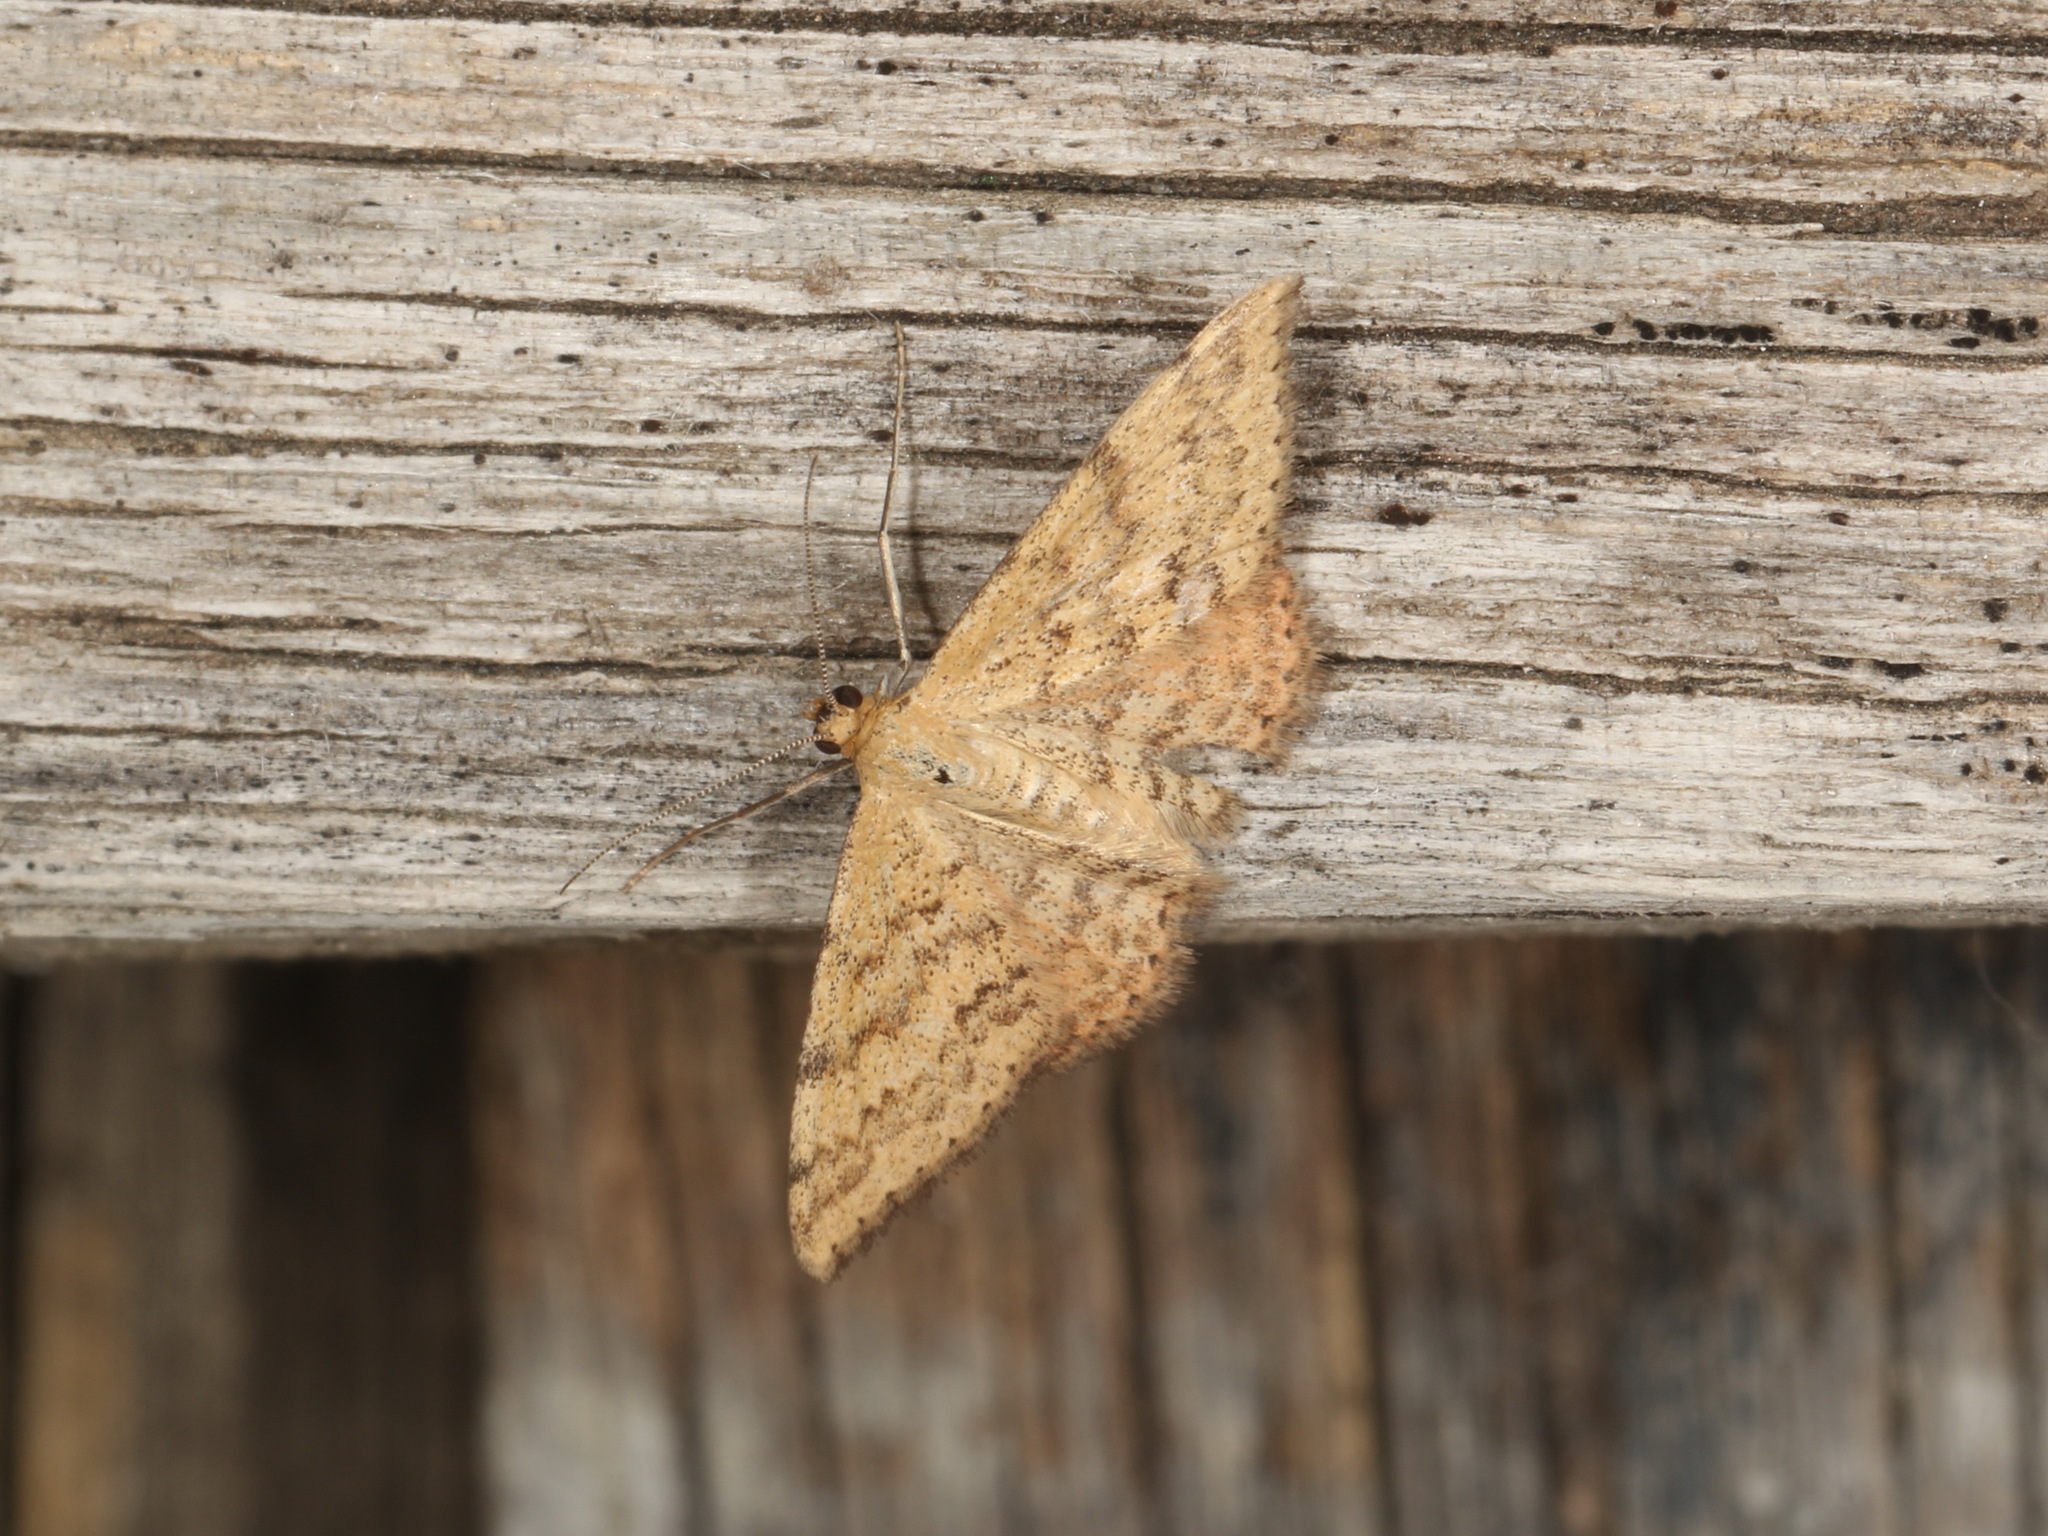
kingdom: Animalia
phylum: Arthropoda
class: Insecta
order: Lepidoptera
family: Geometridae
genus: Scopula
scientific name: Scopula rubraria
